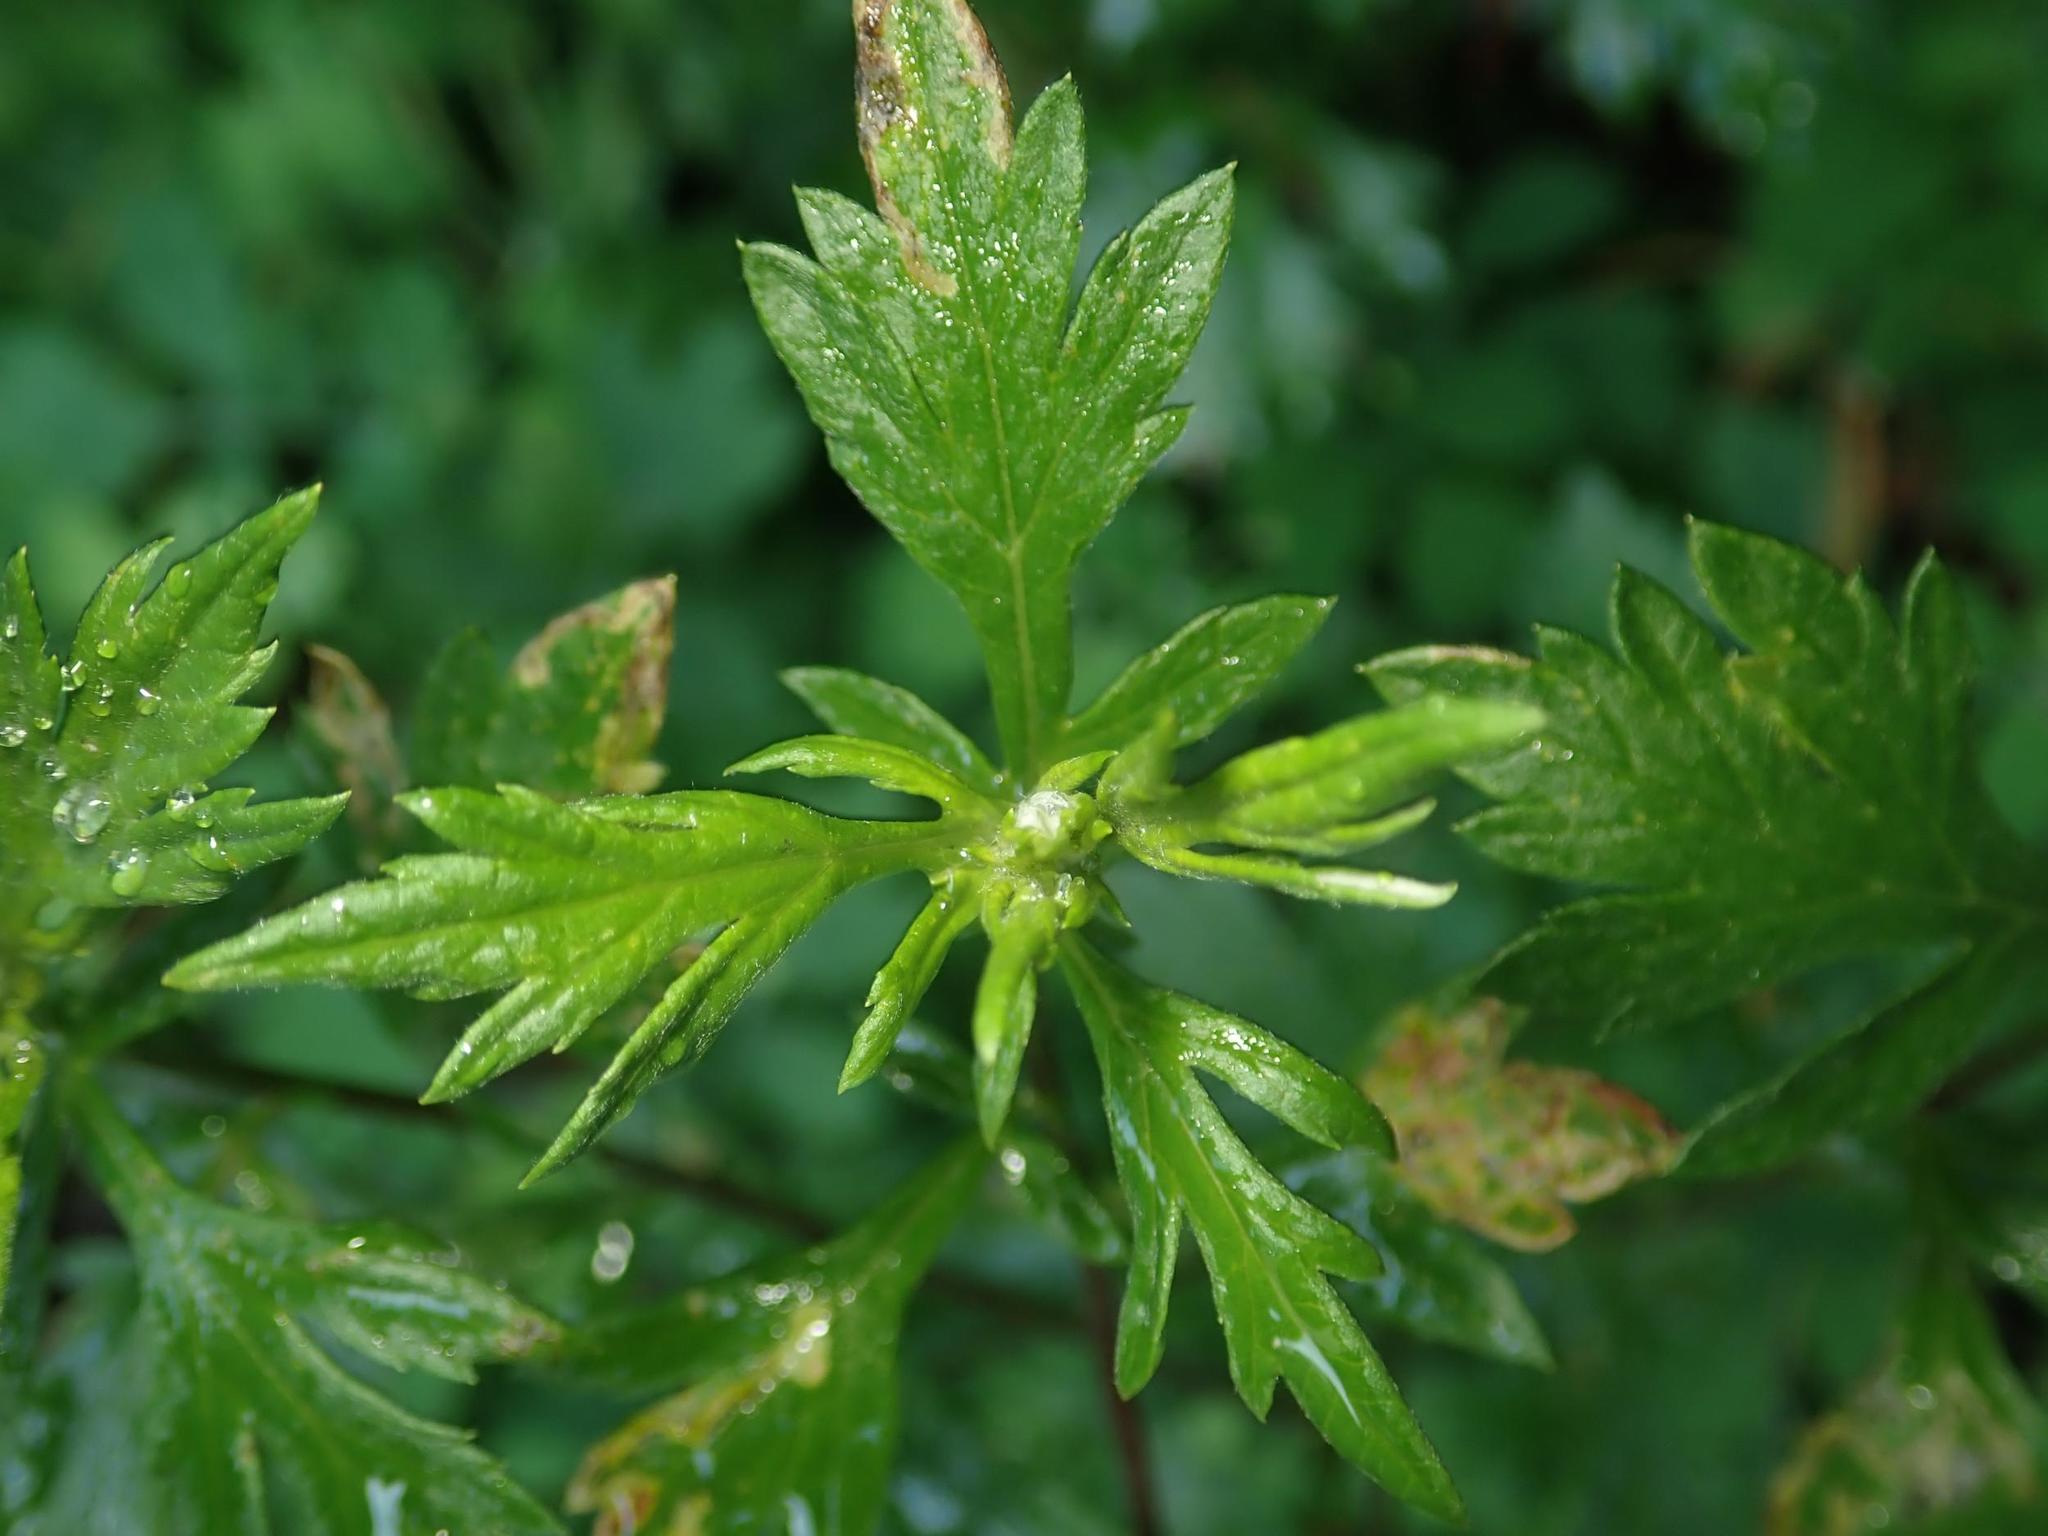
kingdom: Plantae
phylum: Tracheophyta
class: Magnoliopsida
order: Asterales
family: Asteraceae
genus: Artemisia
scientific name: Artemisia vulgaris
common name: Mugwort
